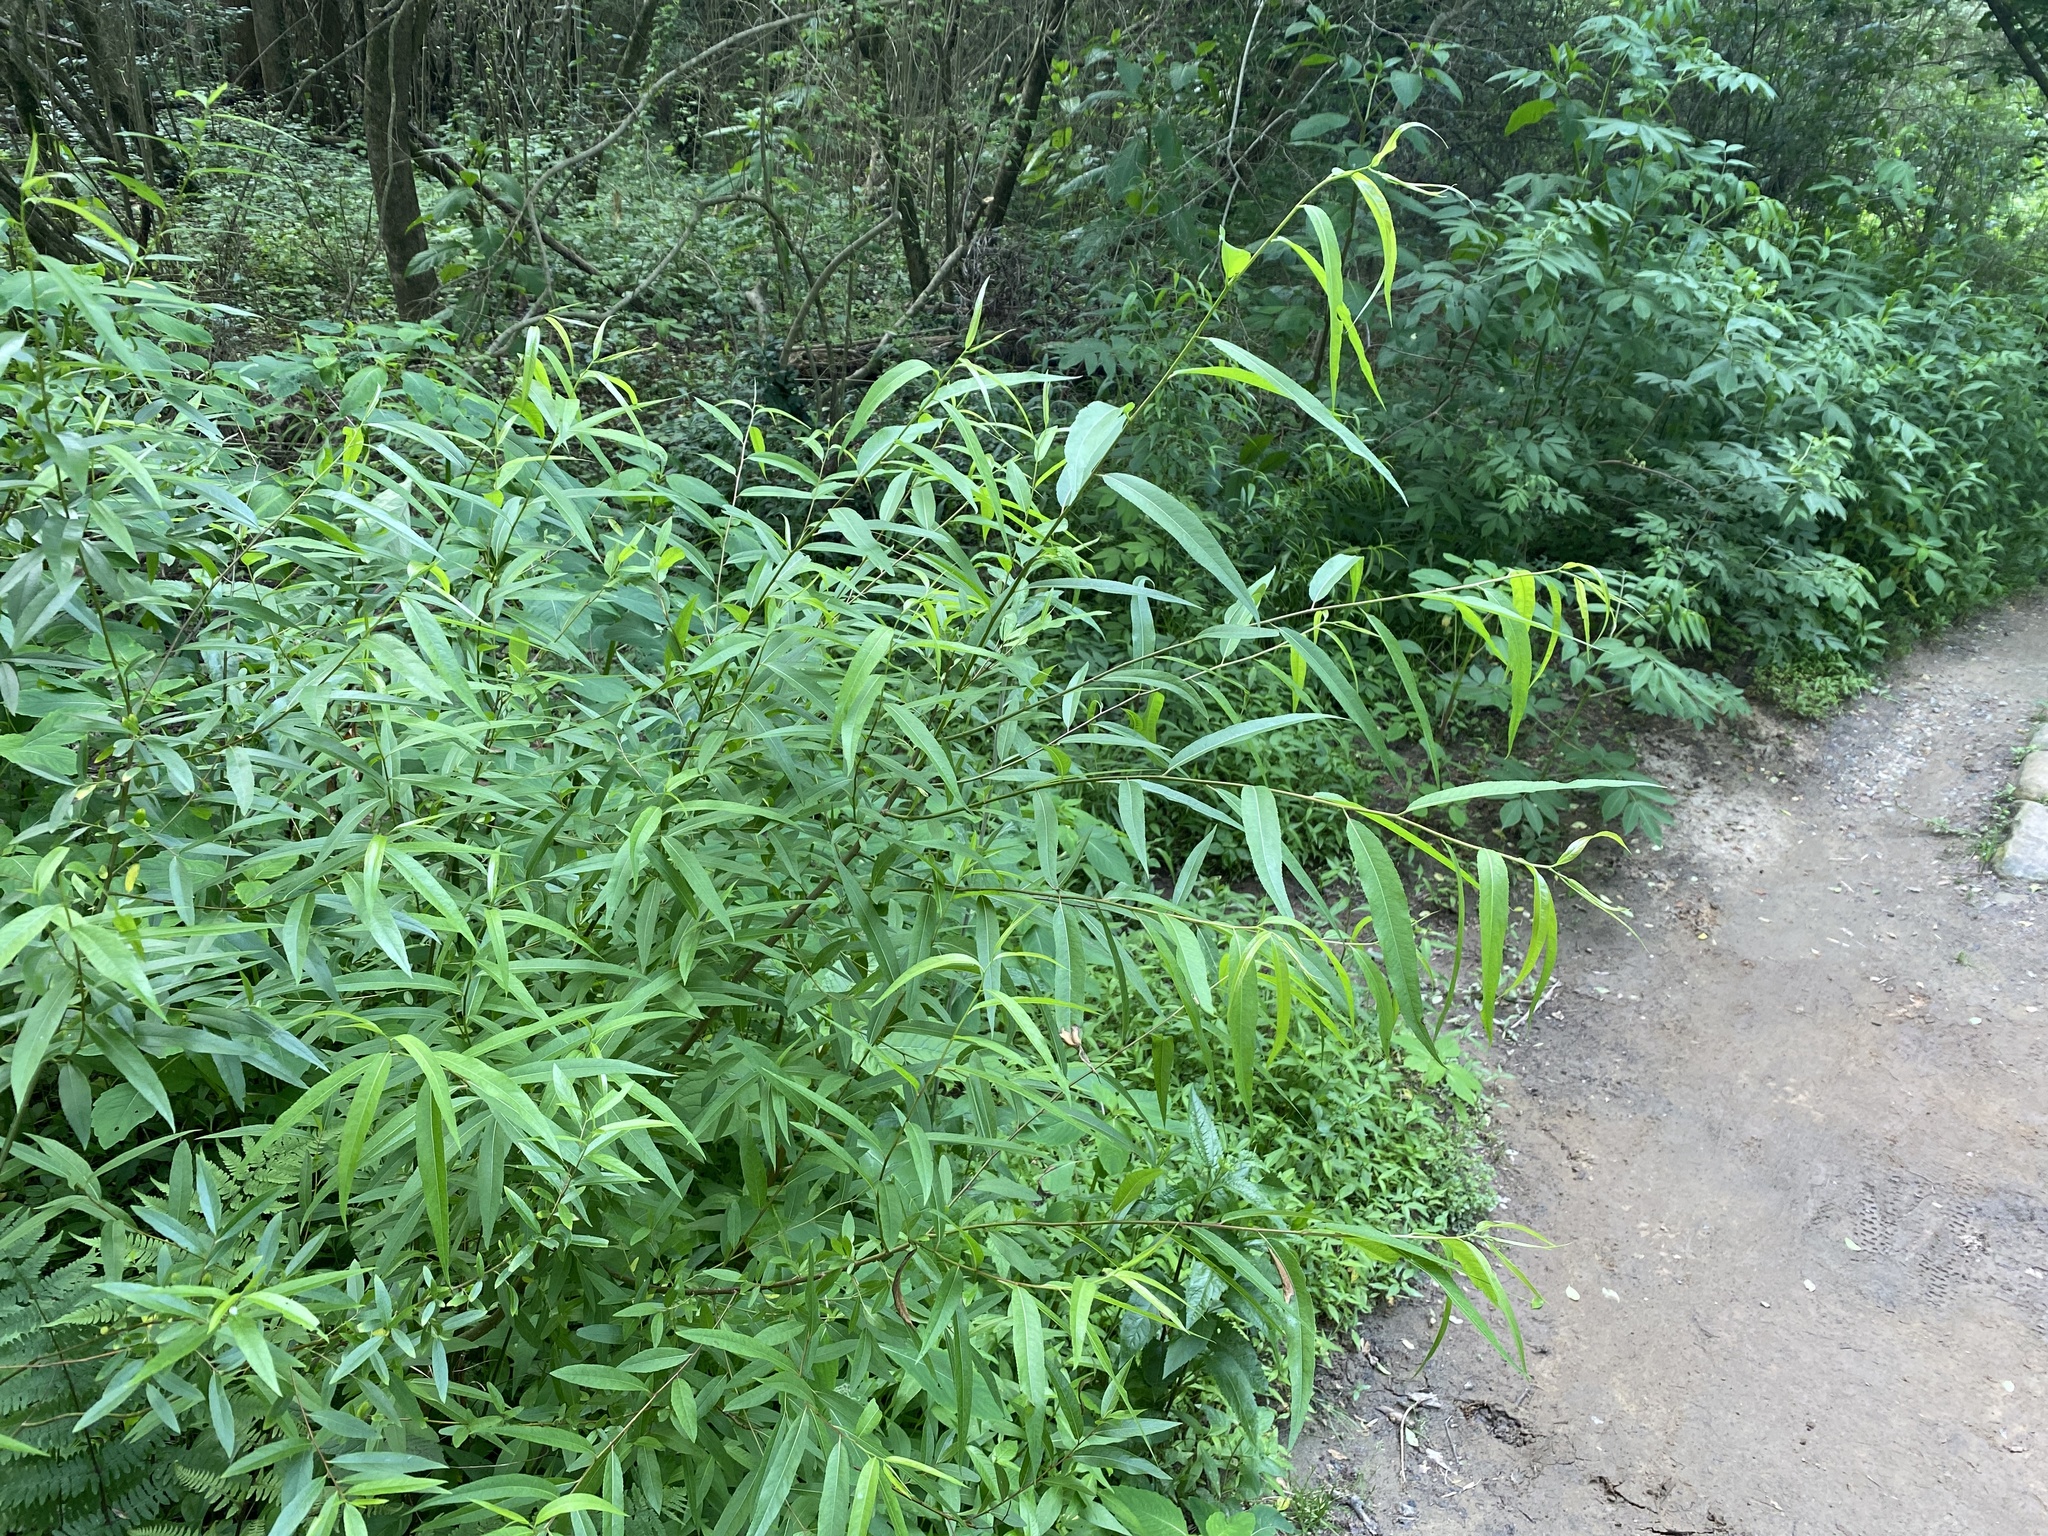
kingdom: Plantae
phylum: Tracheophyta
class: Magnoliopsida
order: Malpighiales
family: Salicaceae
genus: Salix
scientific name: Salix nigra
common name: Black willow
